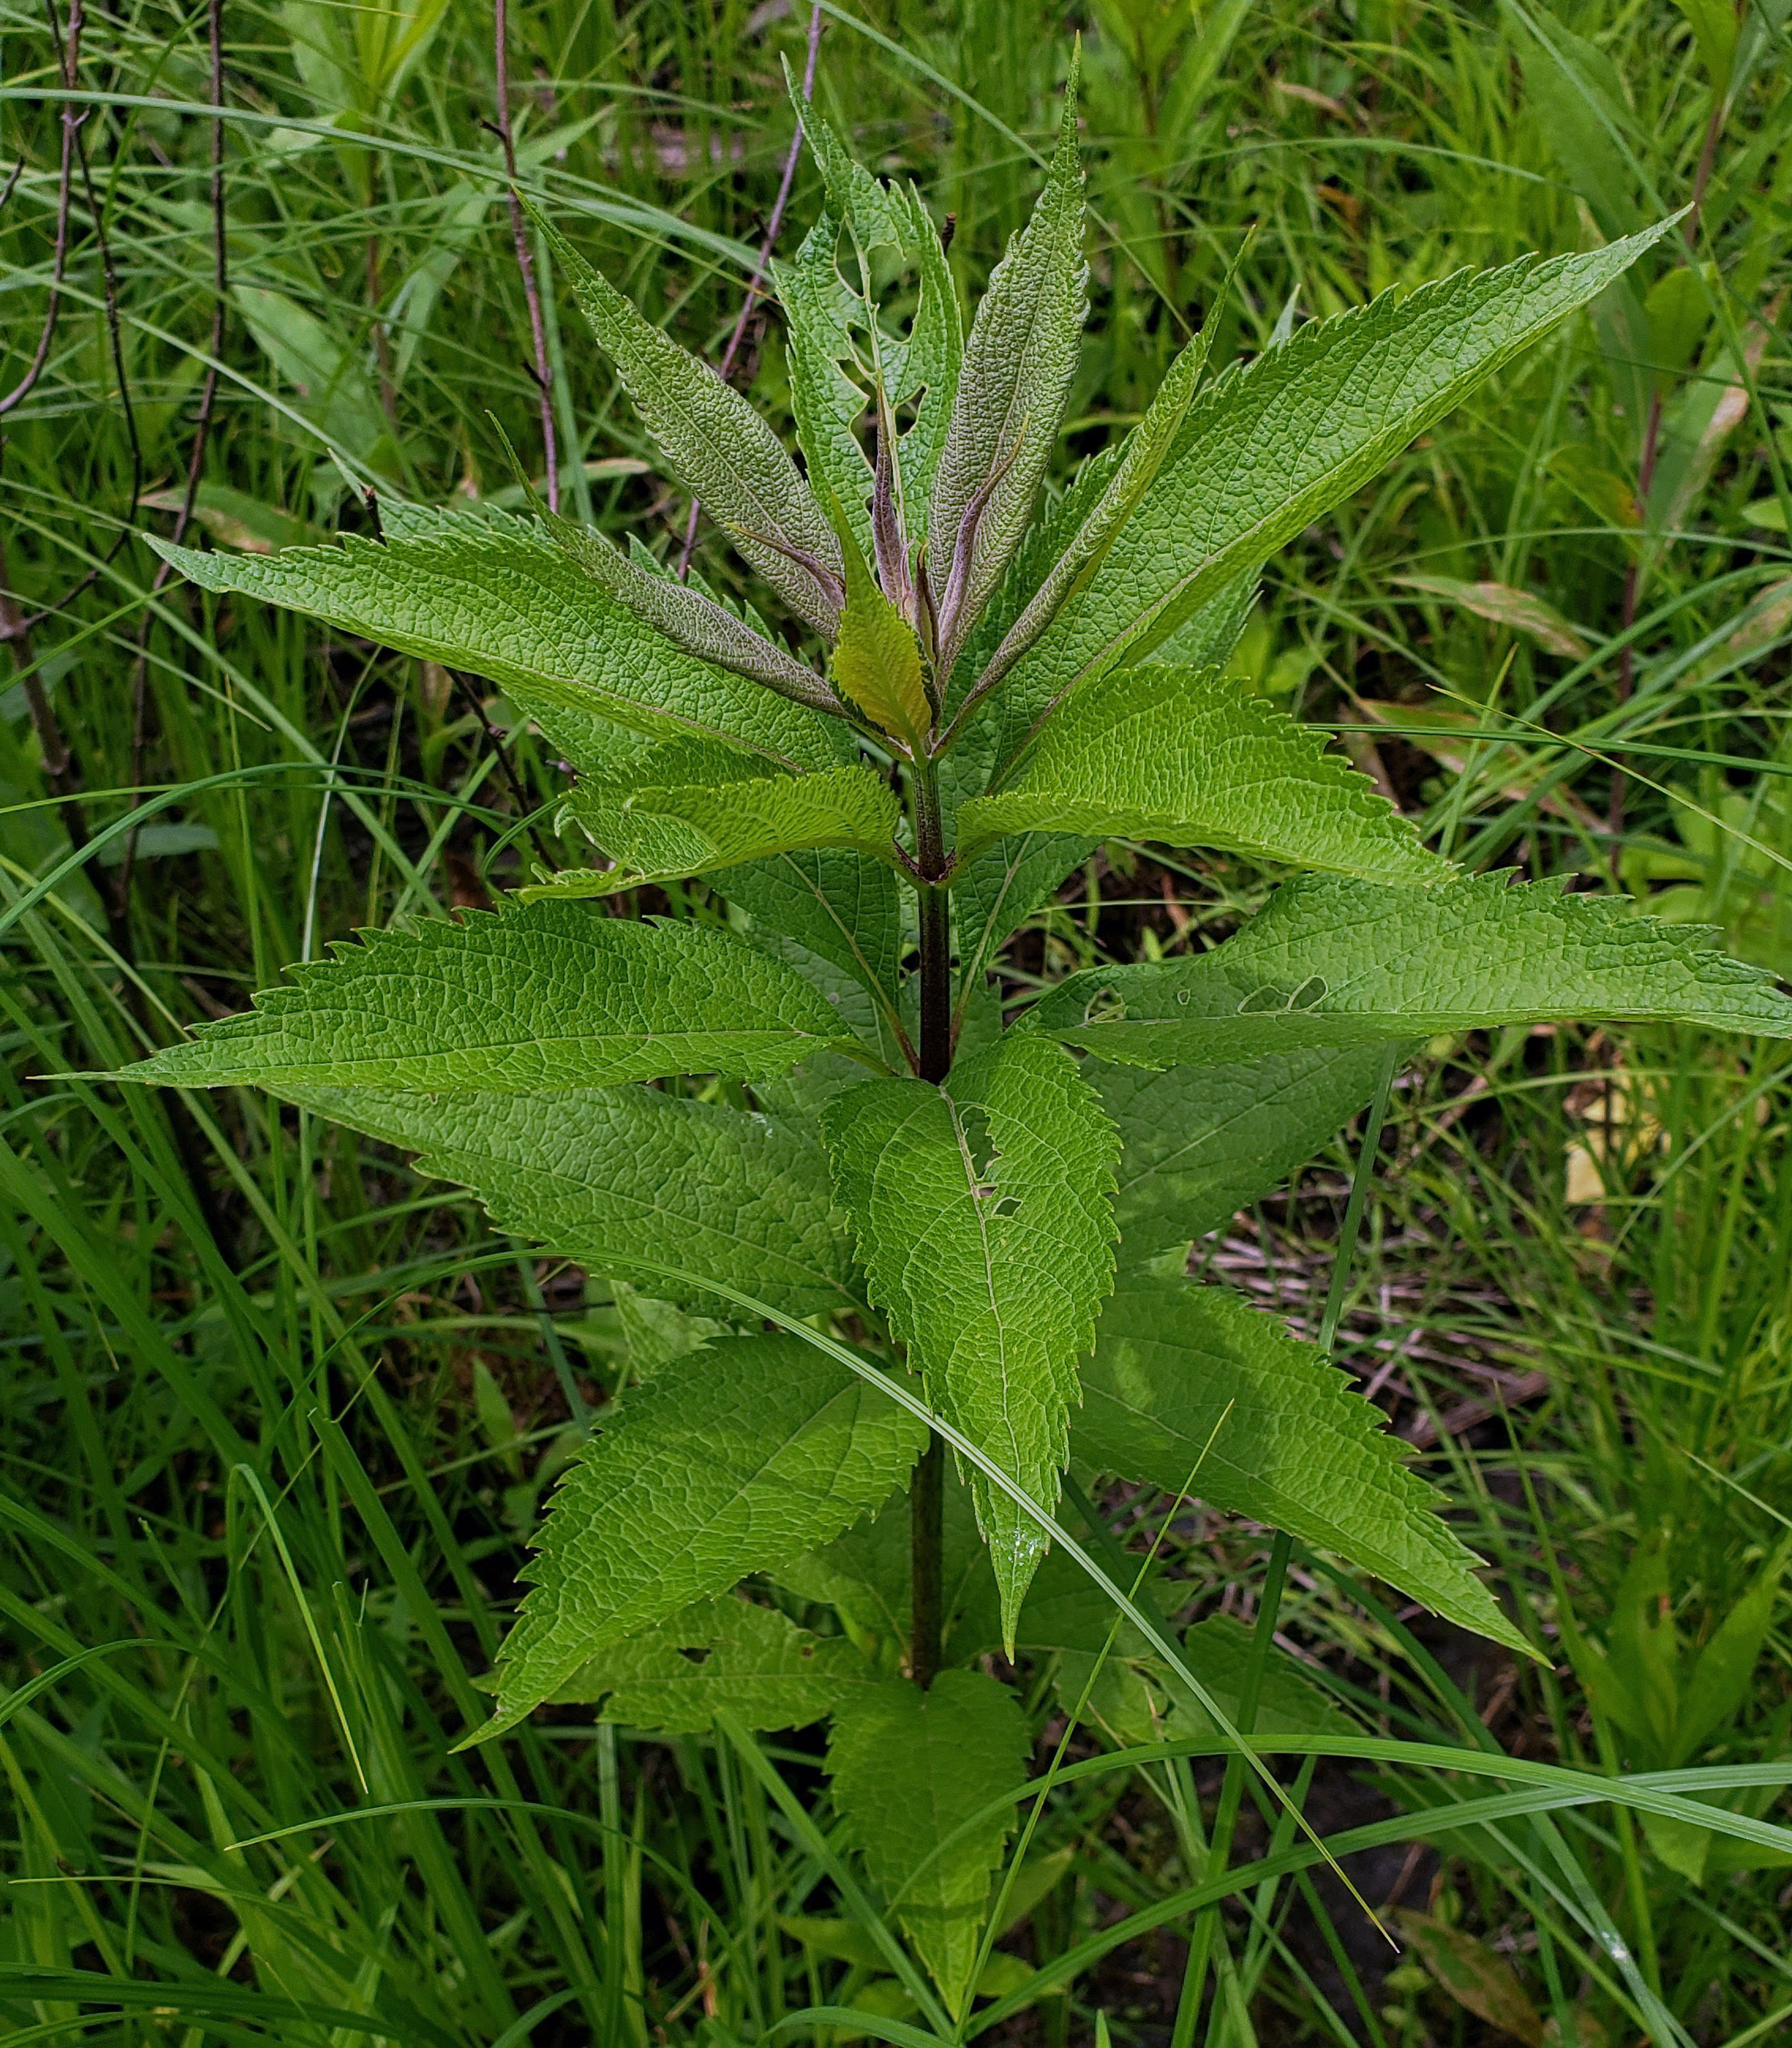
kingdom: Plantae
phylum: Tracheophyta
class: Magnoliopsida
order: Asterales
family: Asteraceae
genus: Eutrochium
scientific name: Eutrochium maculatum
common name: Spotted joe pye weed
